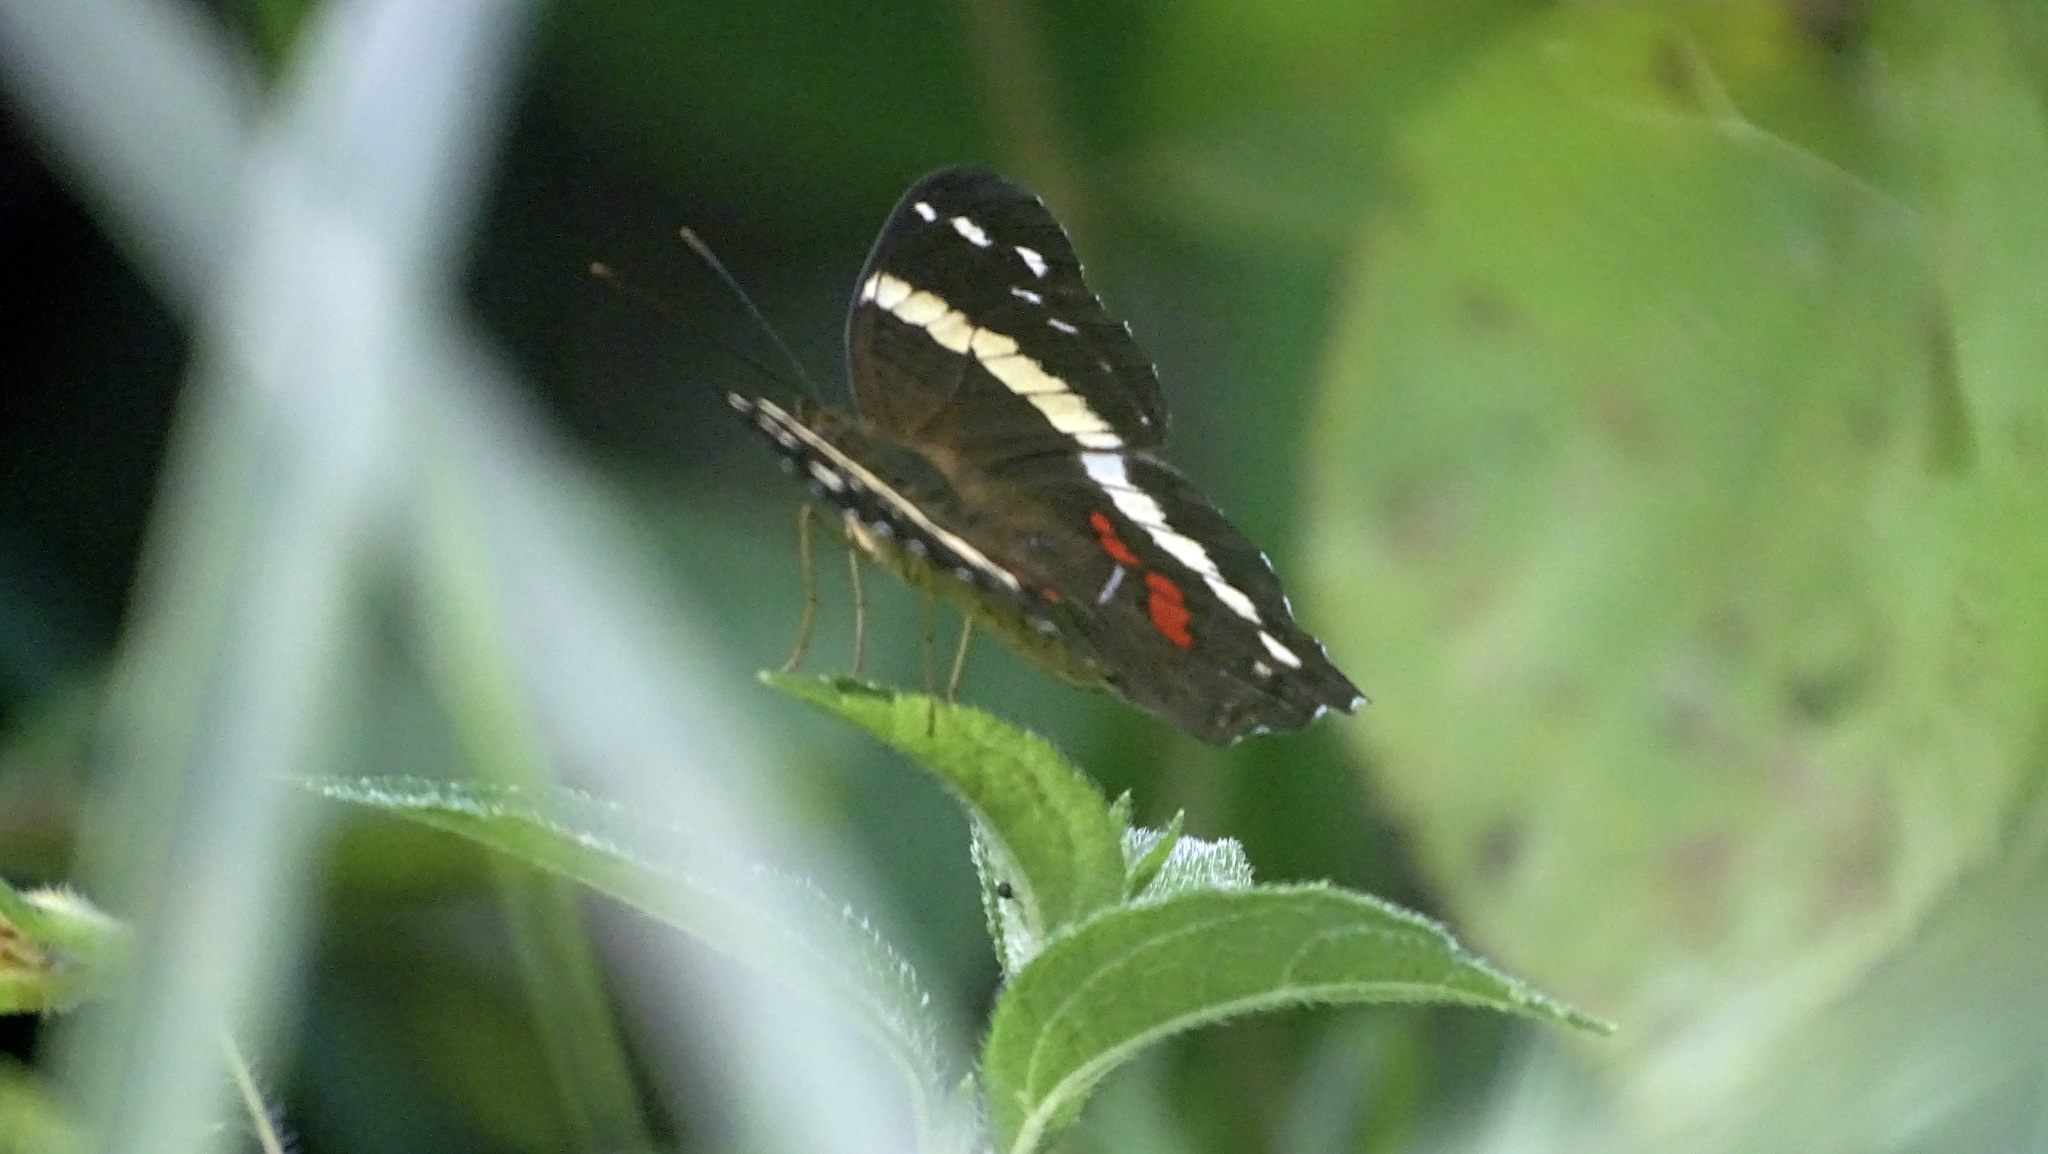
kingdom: Animalia
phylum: Arthropoda
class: Insecta
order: Lepidoptera
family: Nymphalidae
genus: Anartia
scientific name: Anartia fatima
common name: Banded peacock
